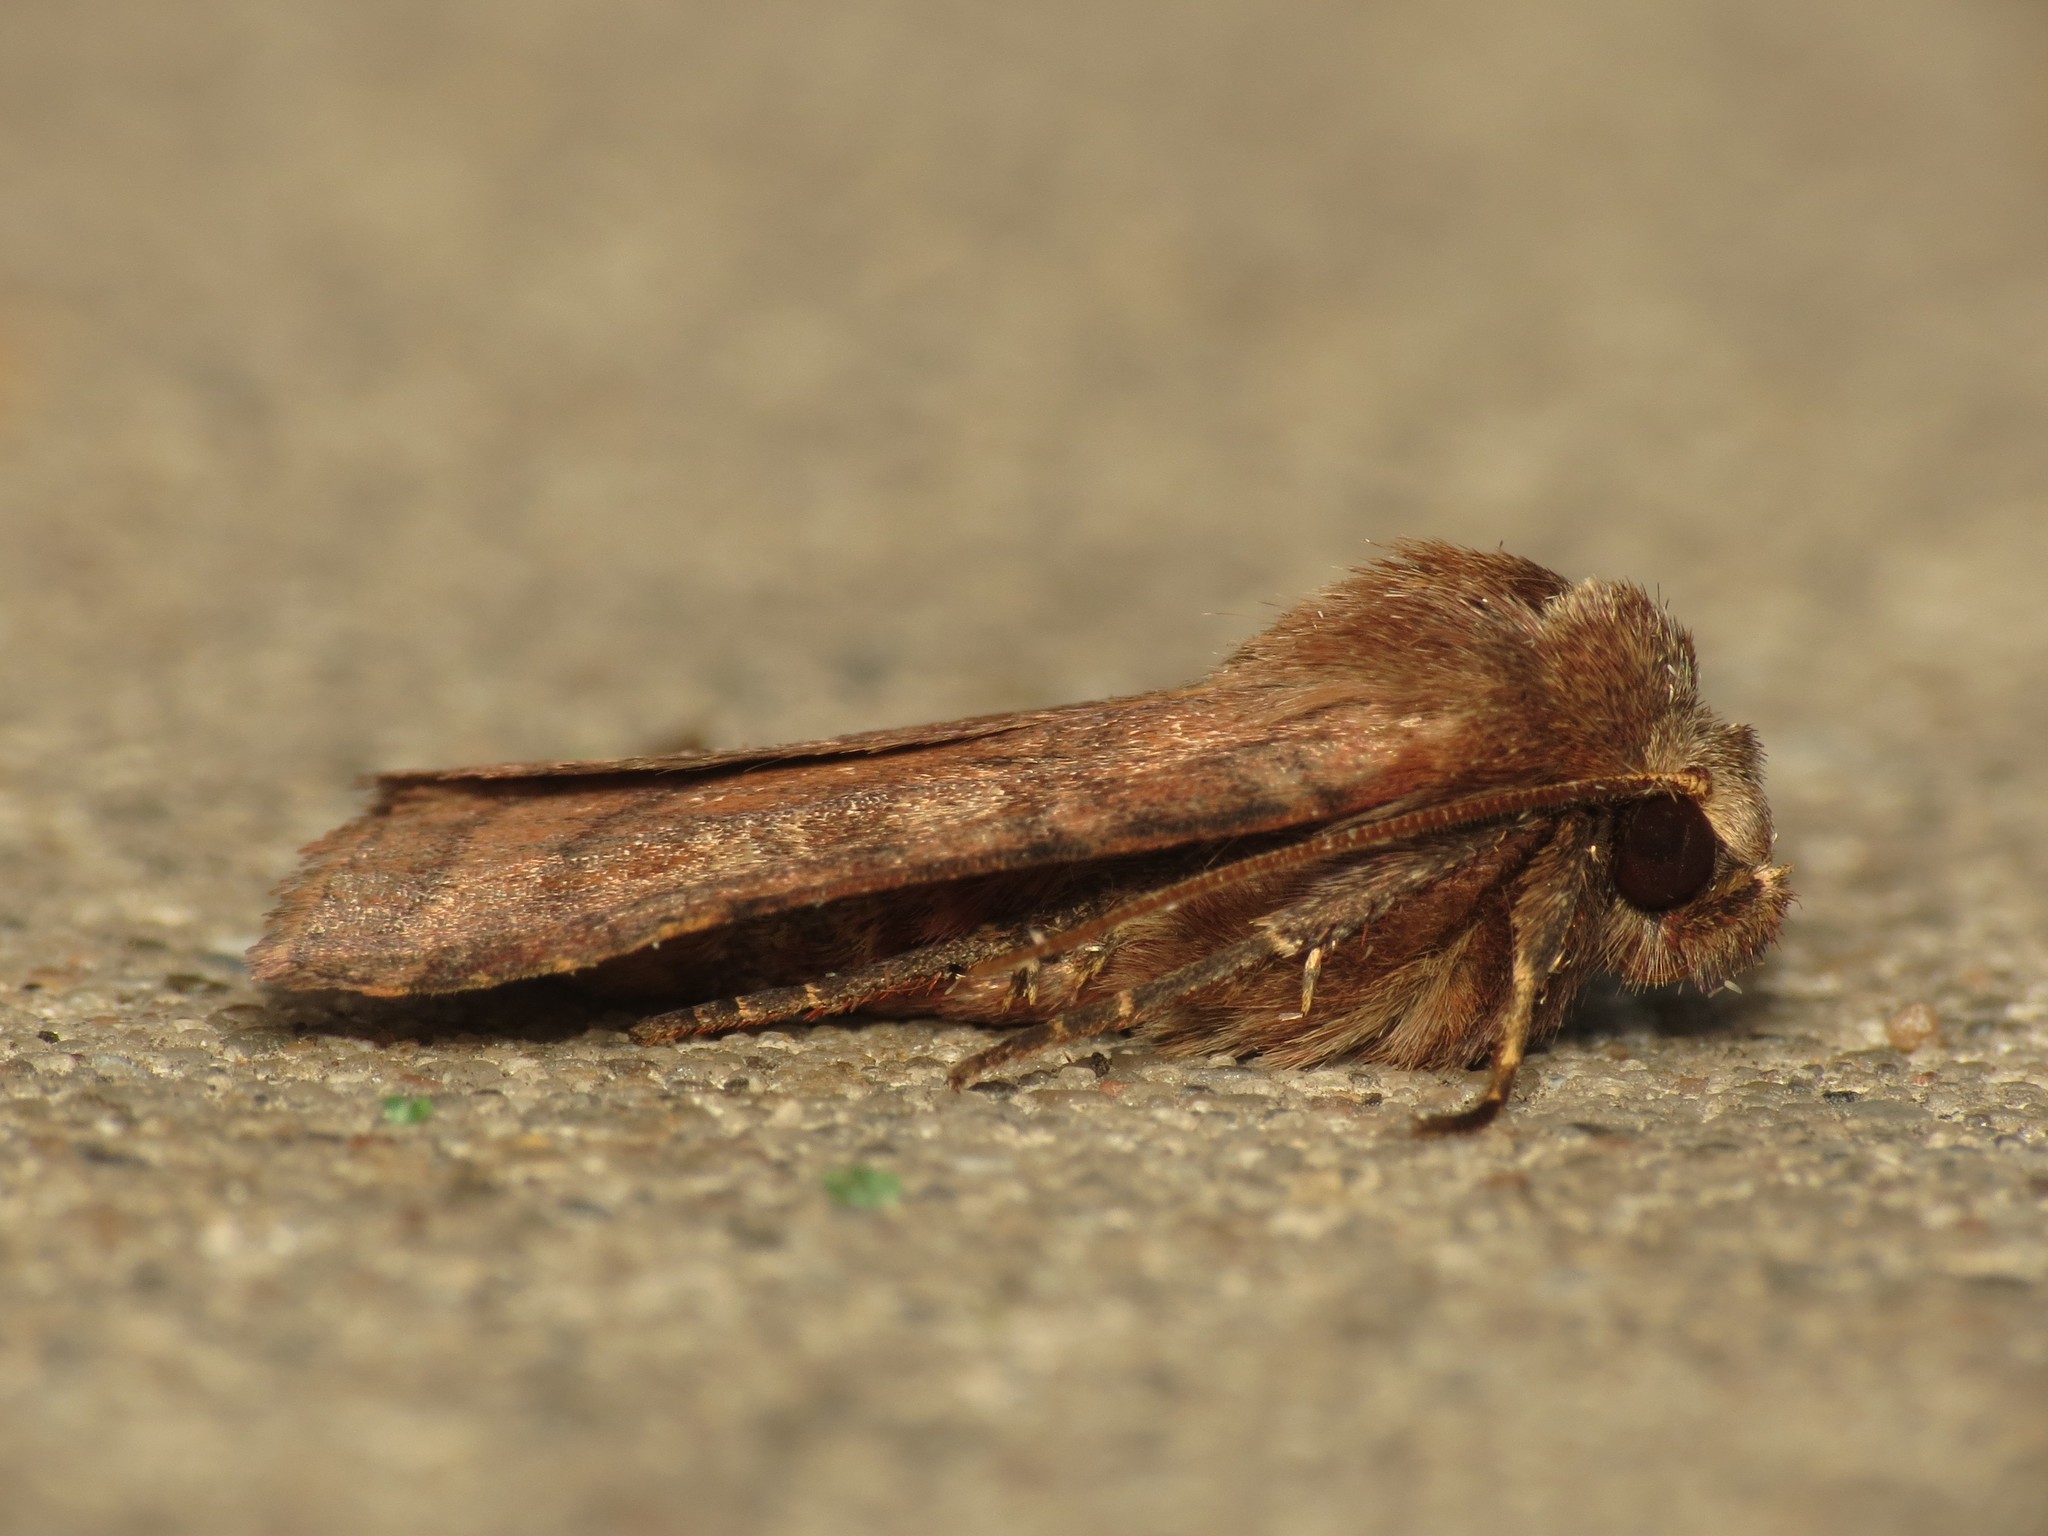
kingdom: Animalia
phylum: Arthropoda
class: Insecta
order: Lepidoptera
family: Noctuidae
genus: Diarsia
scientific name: Diarsia rubi
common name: Small square-spot
